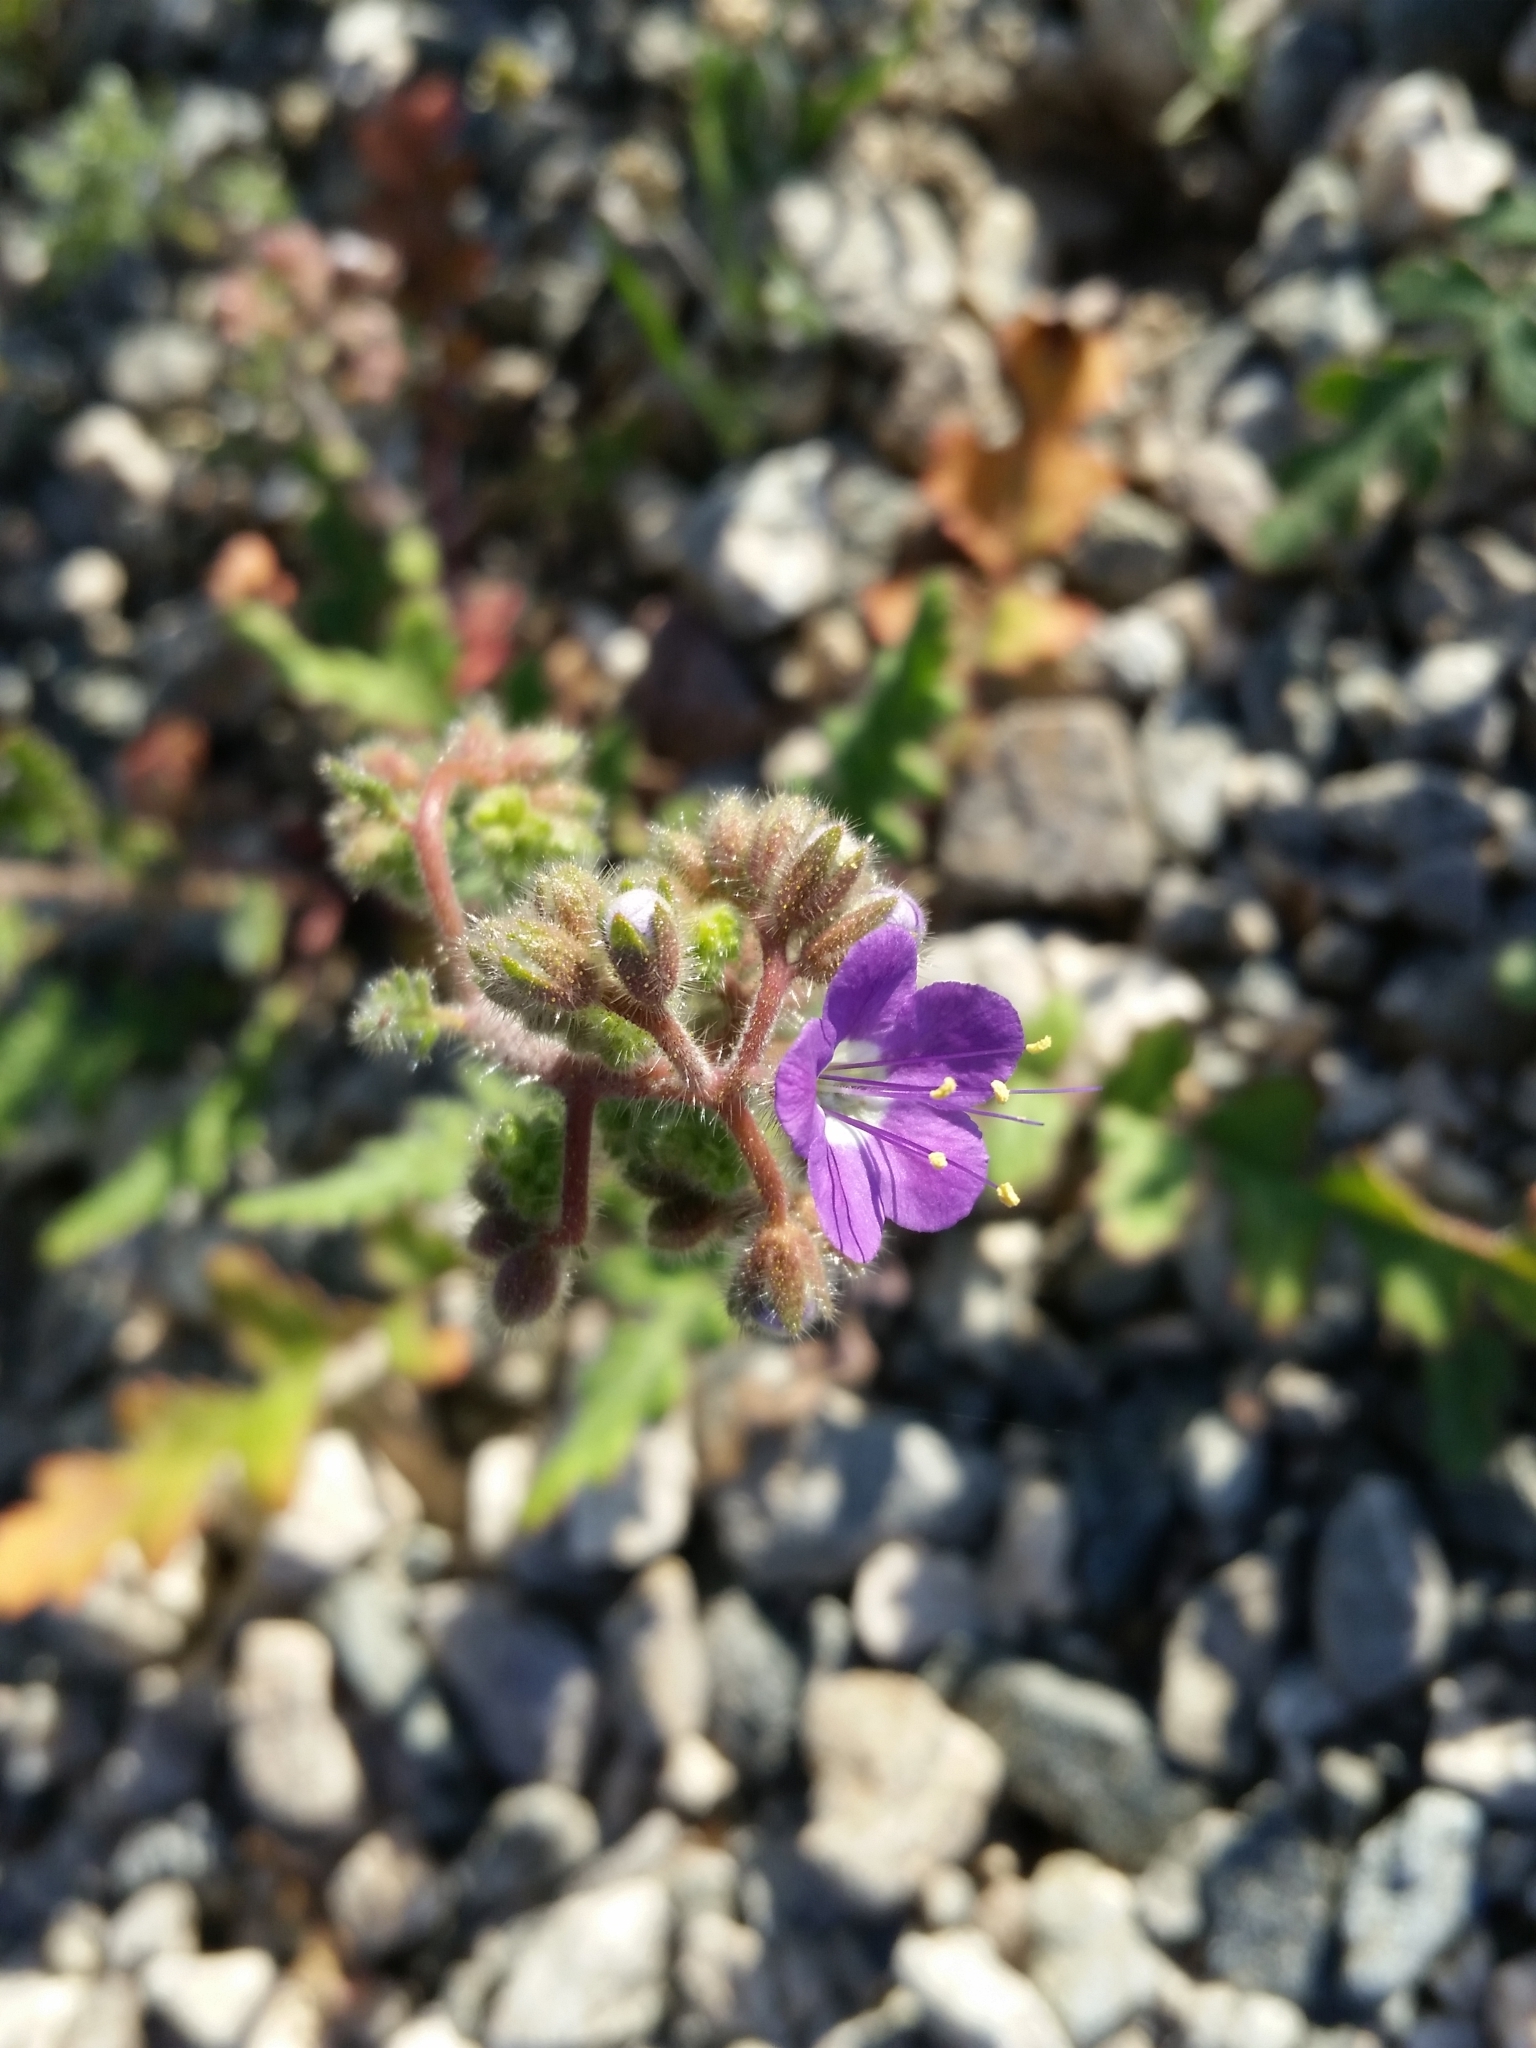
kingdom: Plantae
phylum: Tracheophyta
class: Magnoliopsida
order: Boraginales
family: Hydrophyllaceae
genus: Phacelia
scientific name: Phacelia crenulata
